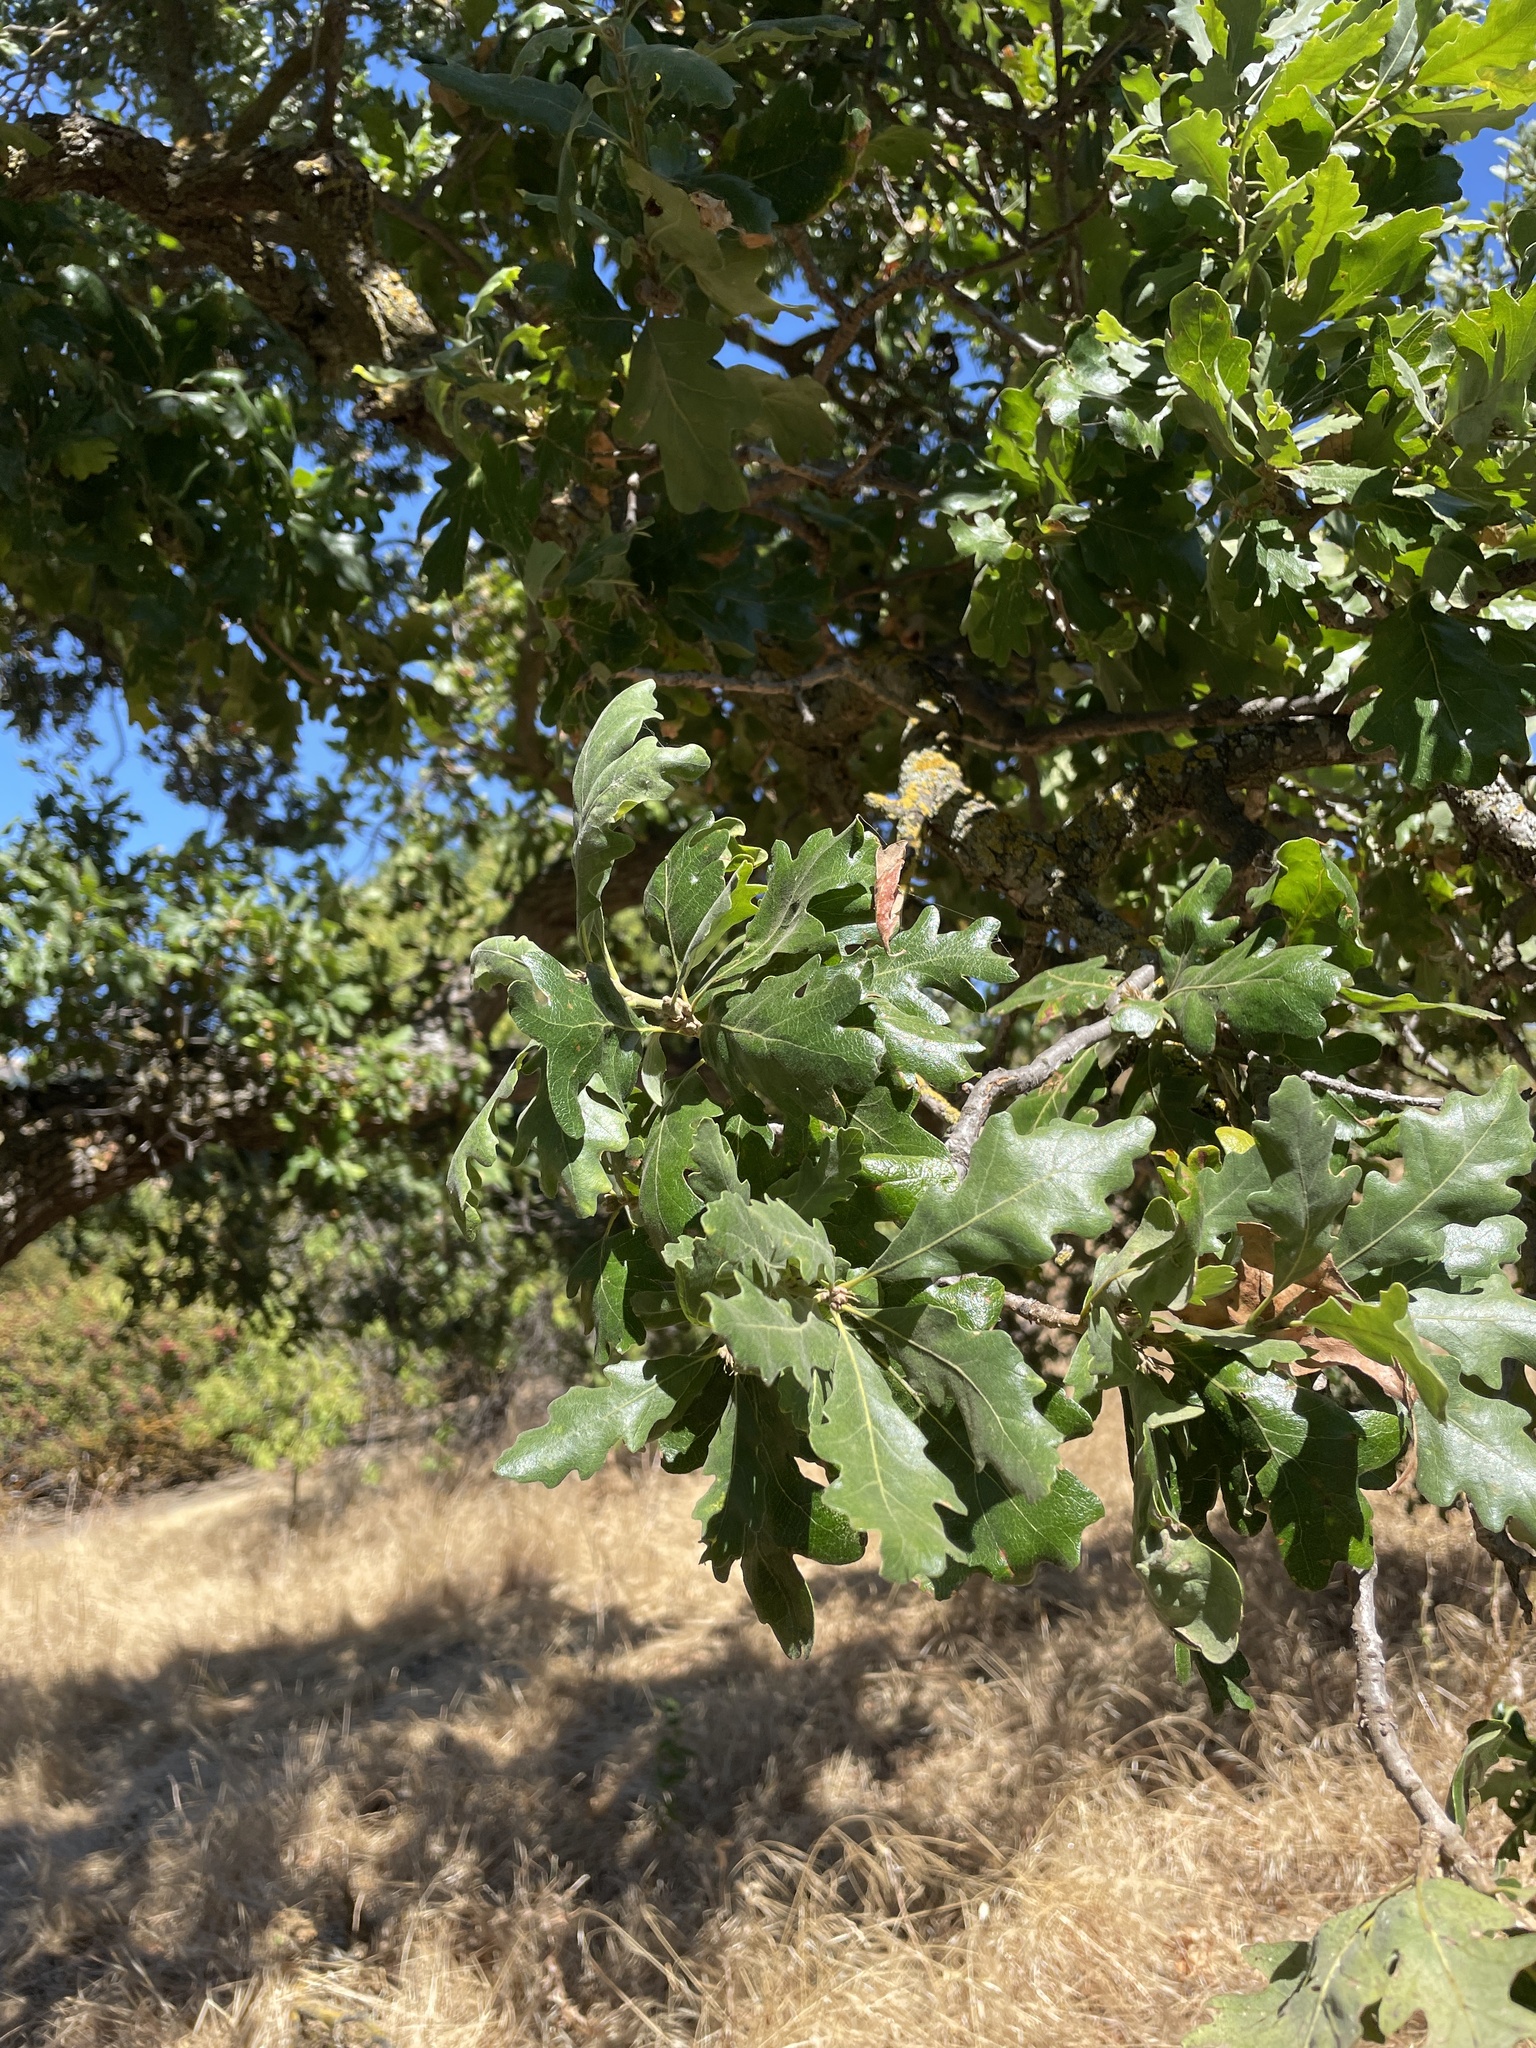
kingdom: Plantae
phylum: Tracheophyta
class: Magnoliopsida
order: Fagales
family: Fagaceae
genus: Quercus
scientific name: Quercus lobata
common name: Valley oak
